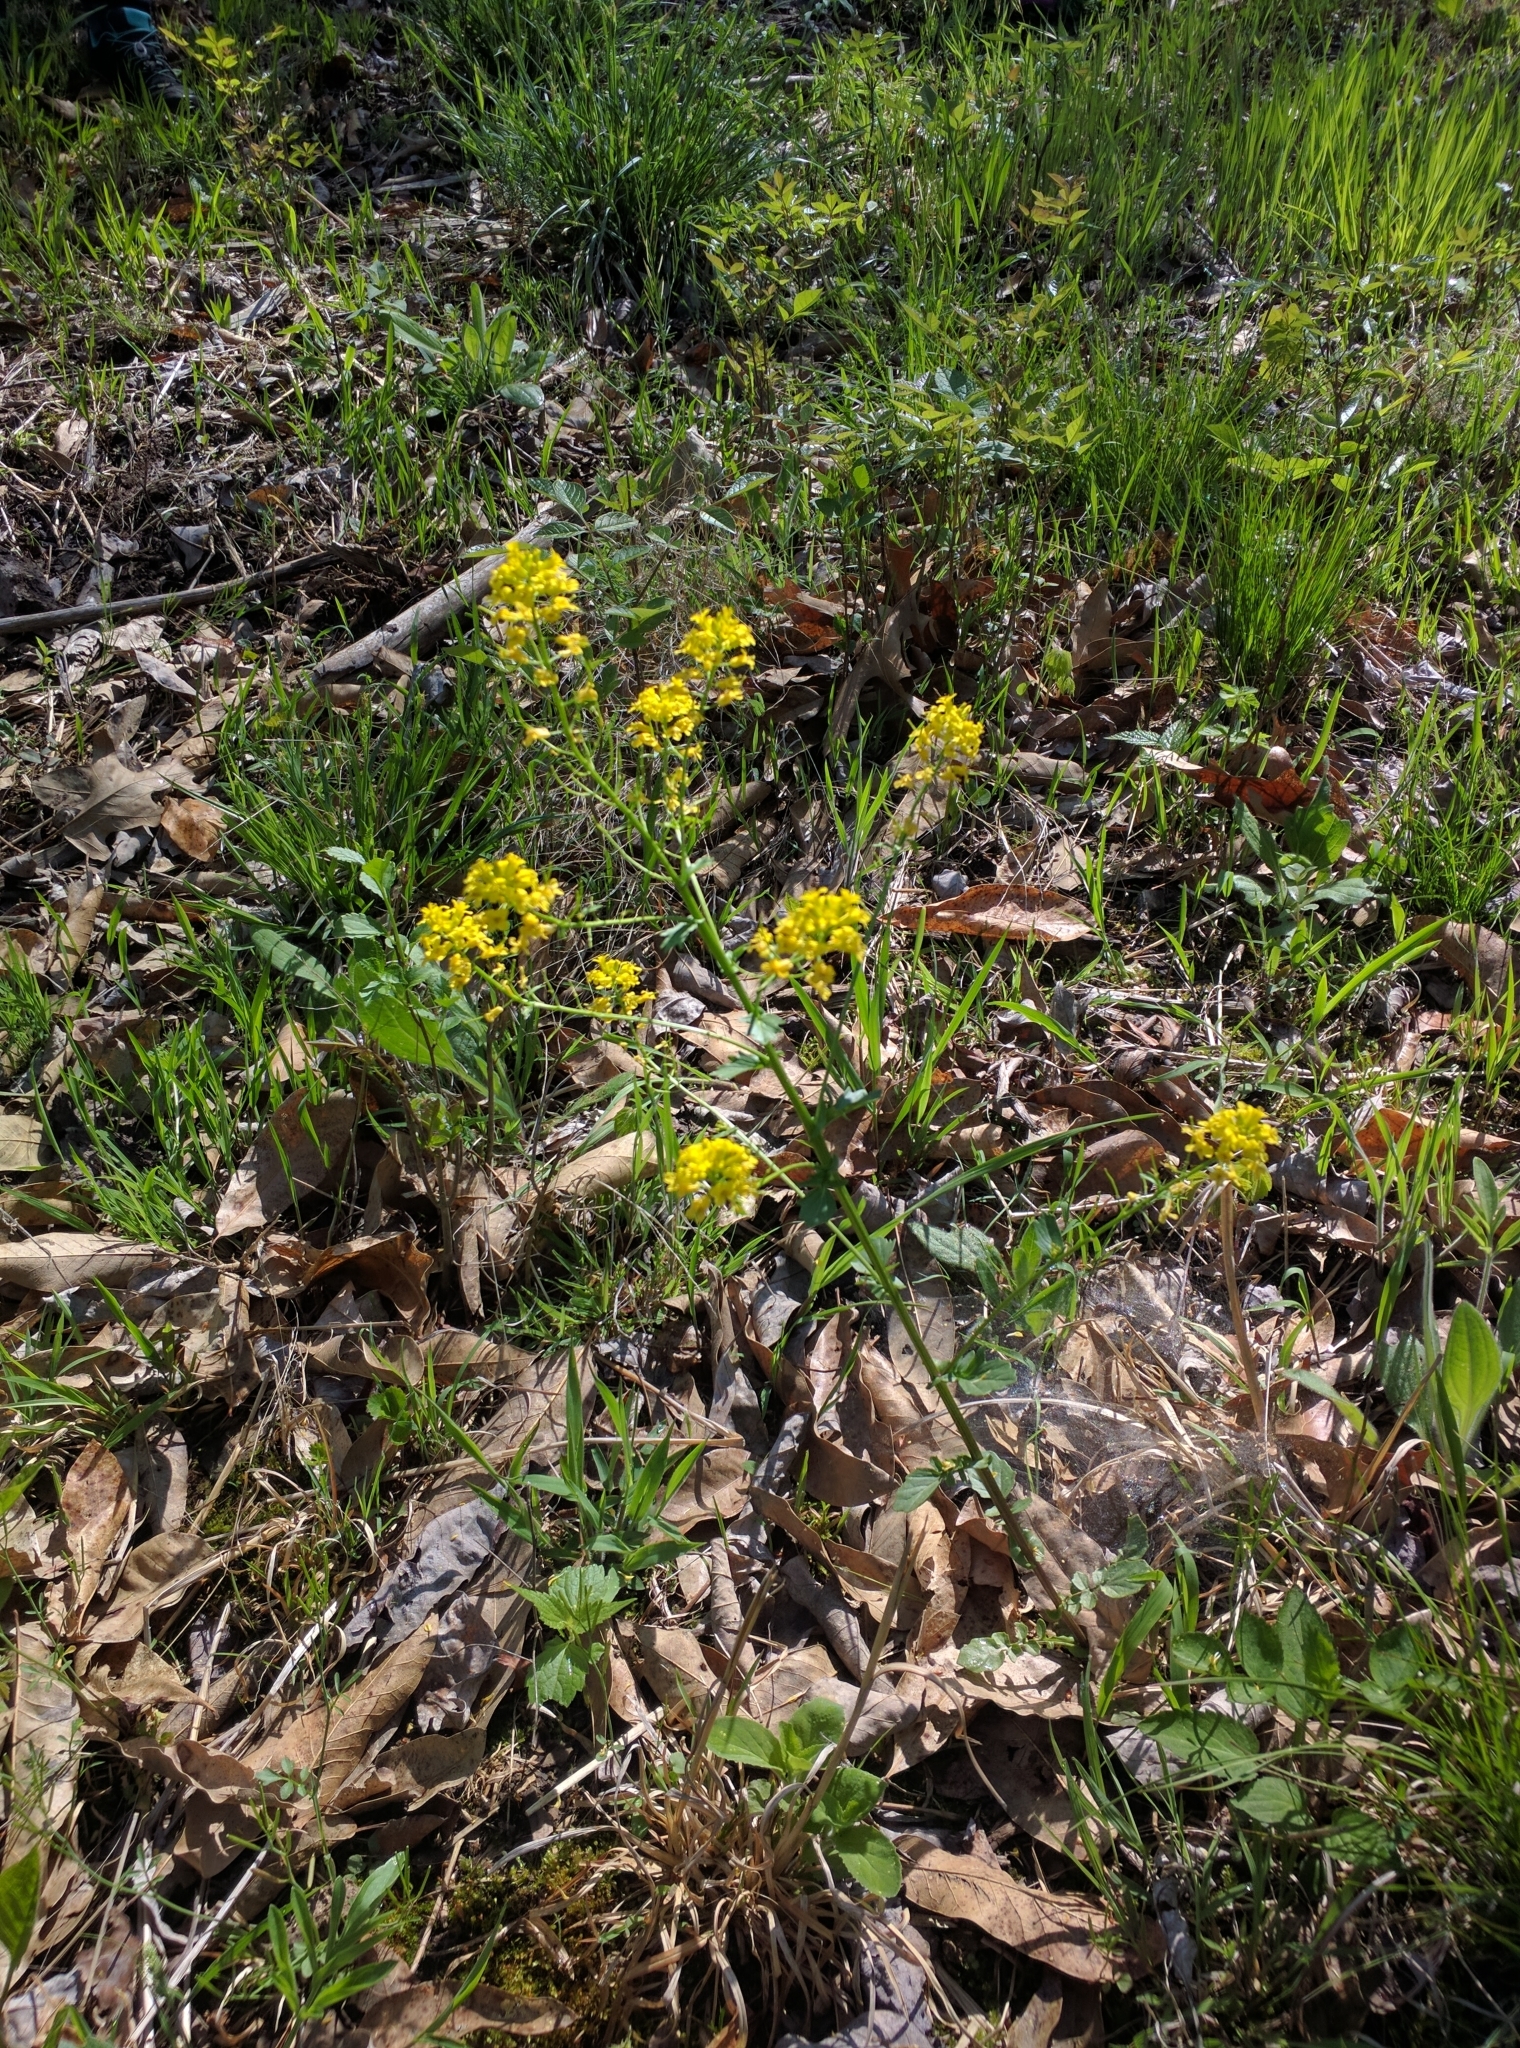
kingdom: Plantae
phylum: Tracheophyta
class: Magnoliopsida
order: Brassicales
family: Brassicaceae
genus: Barbarea
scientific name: Barbarea vulgaris
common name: Cressy-greens
